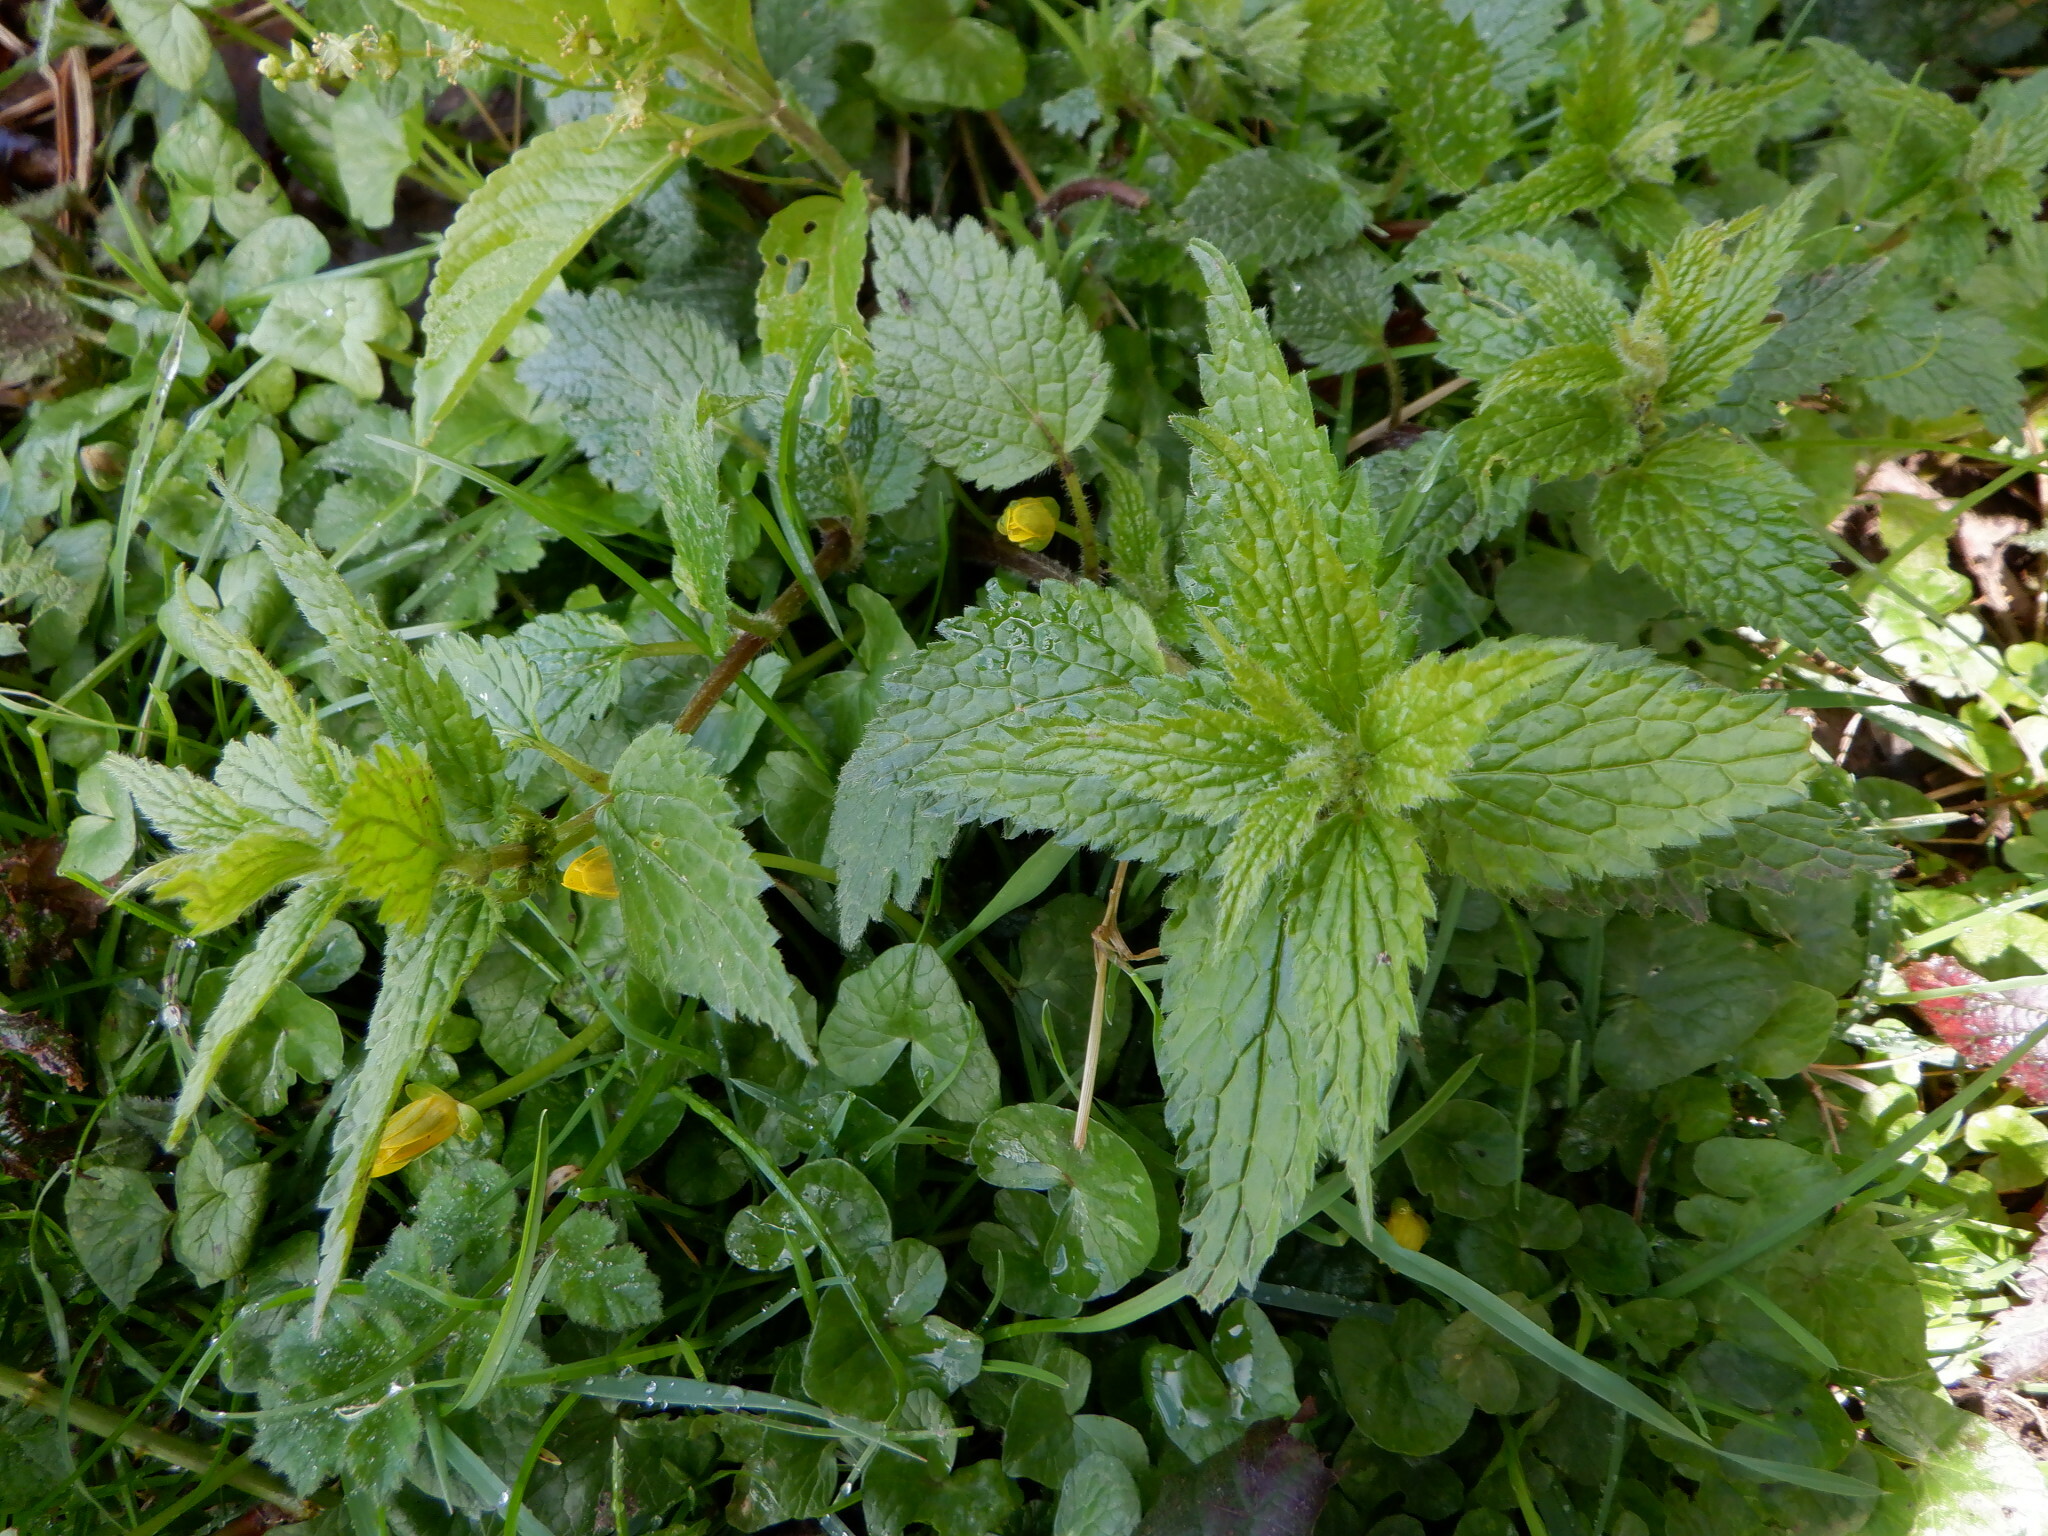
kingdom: Plantae
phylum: Tracheophyta
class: Magnoliopsida
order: Lamiales
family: Lamiaceae
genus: Lamium
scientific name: Lamium galeobdolon
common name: Yellow archangel
